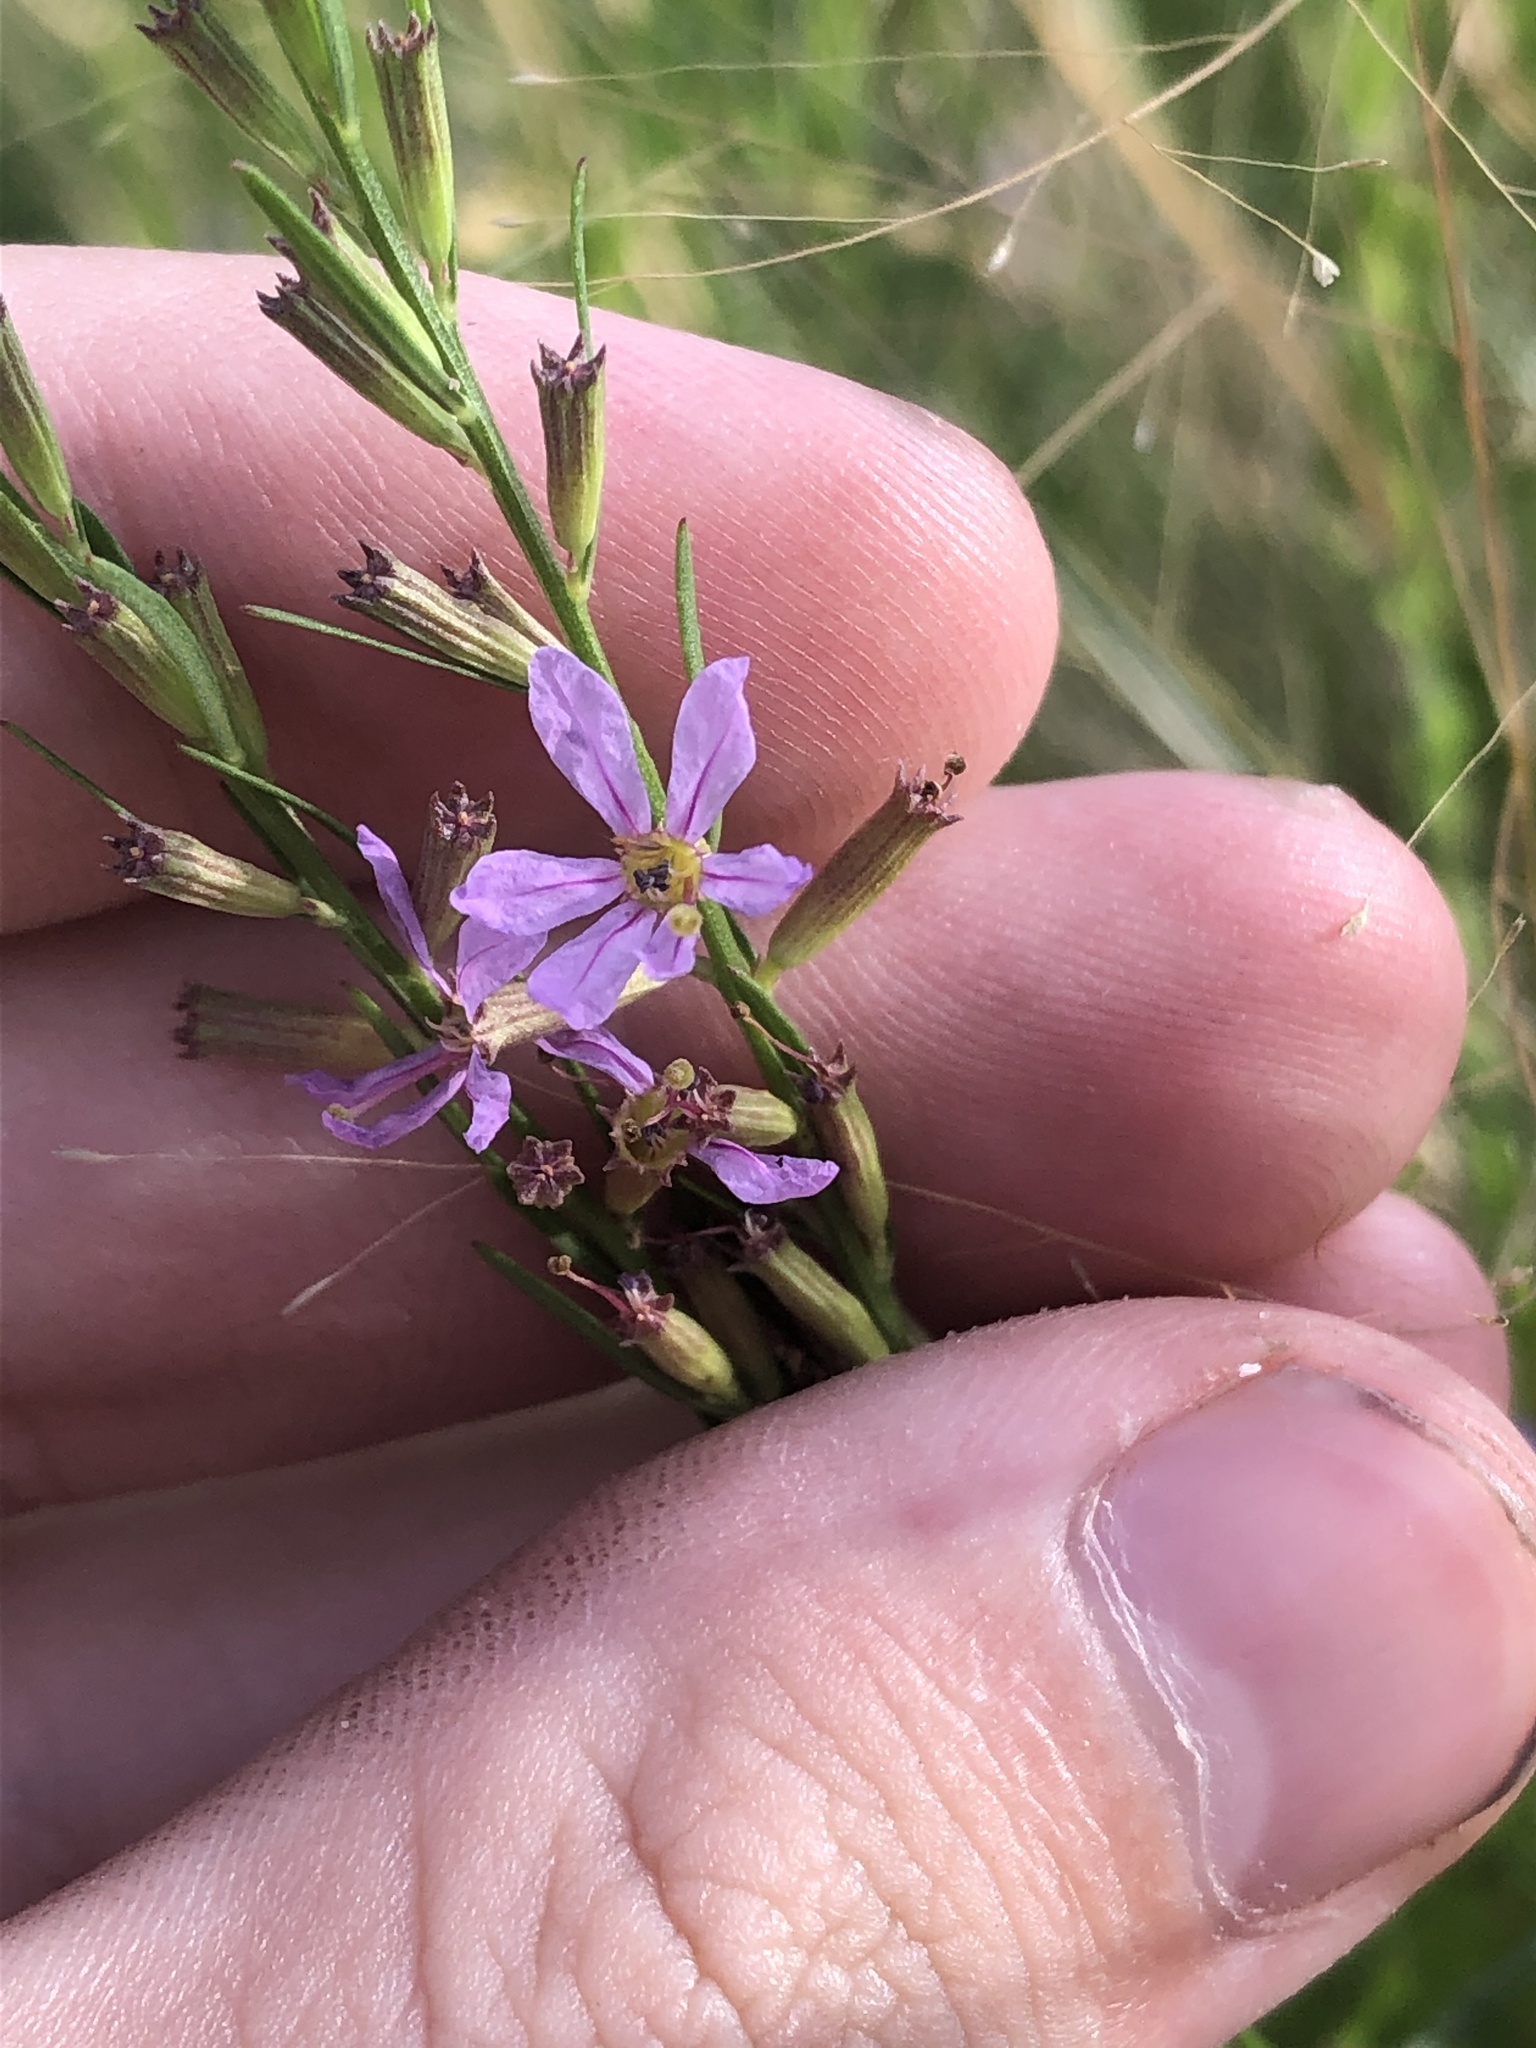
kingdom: Plantae
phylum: Tracheophyta
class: Magnoliopsida
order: Myrtales
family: Lythraceae
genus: Lythrum
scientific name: Lythrum californicum
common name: California loosestrife
